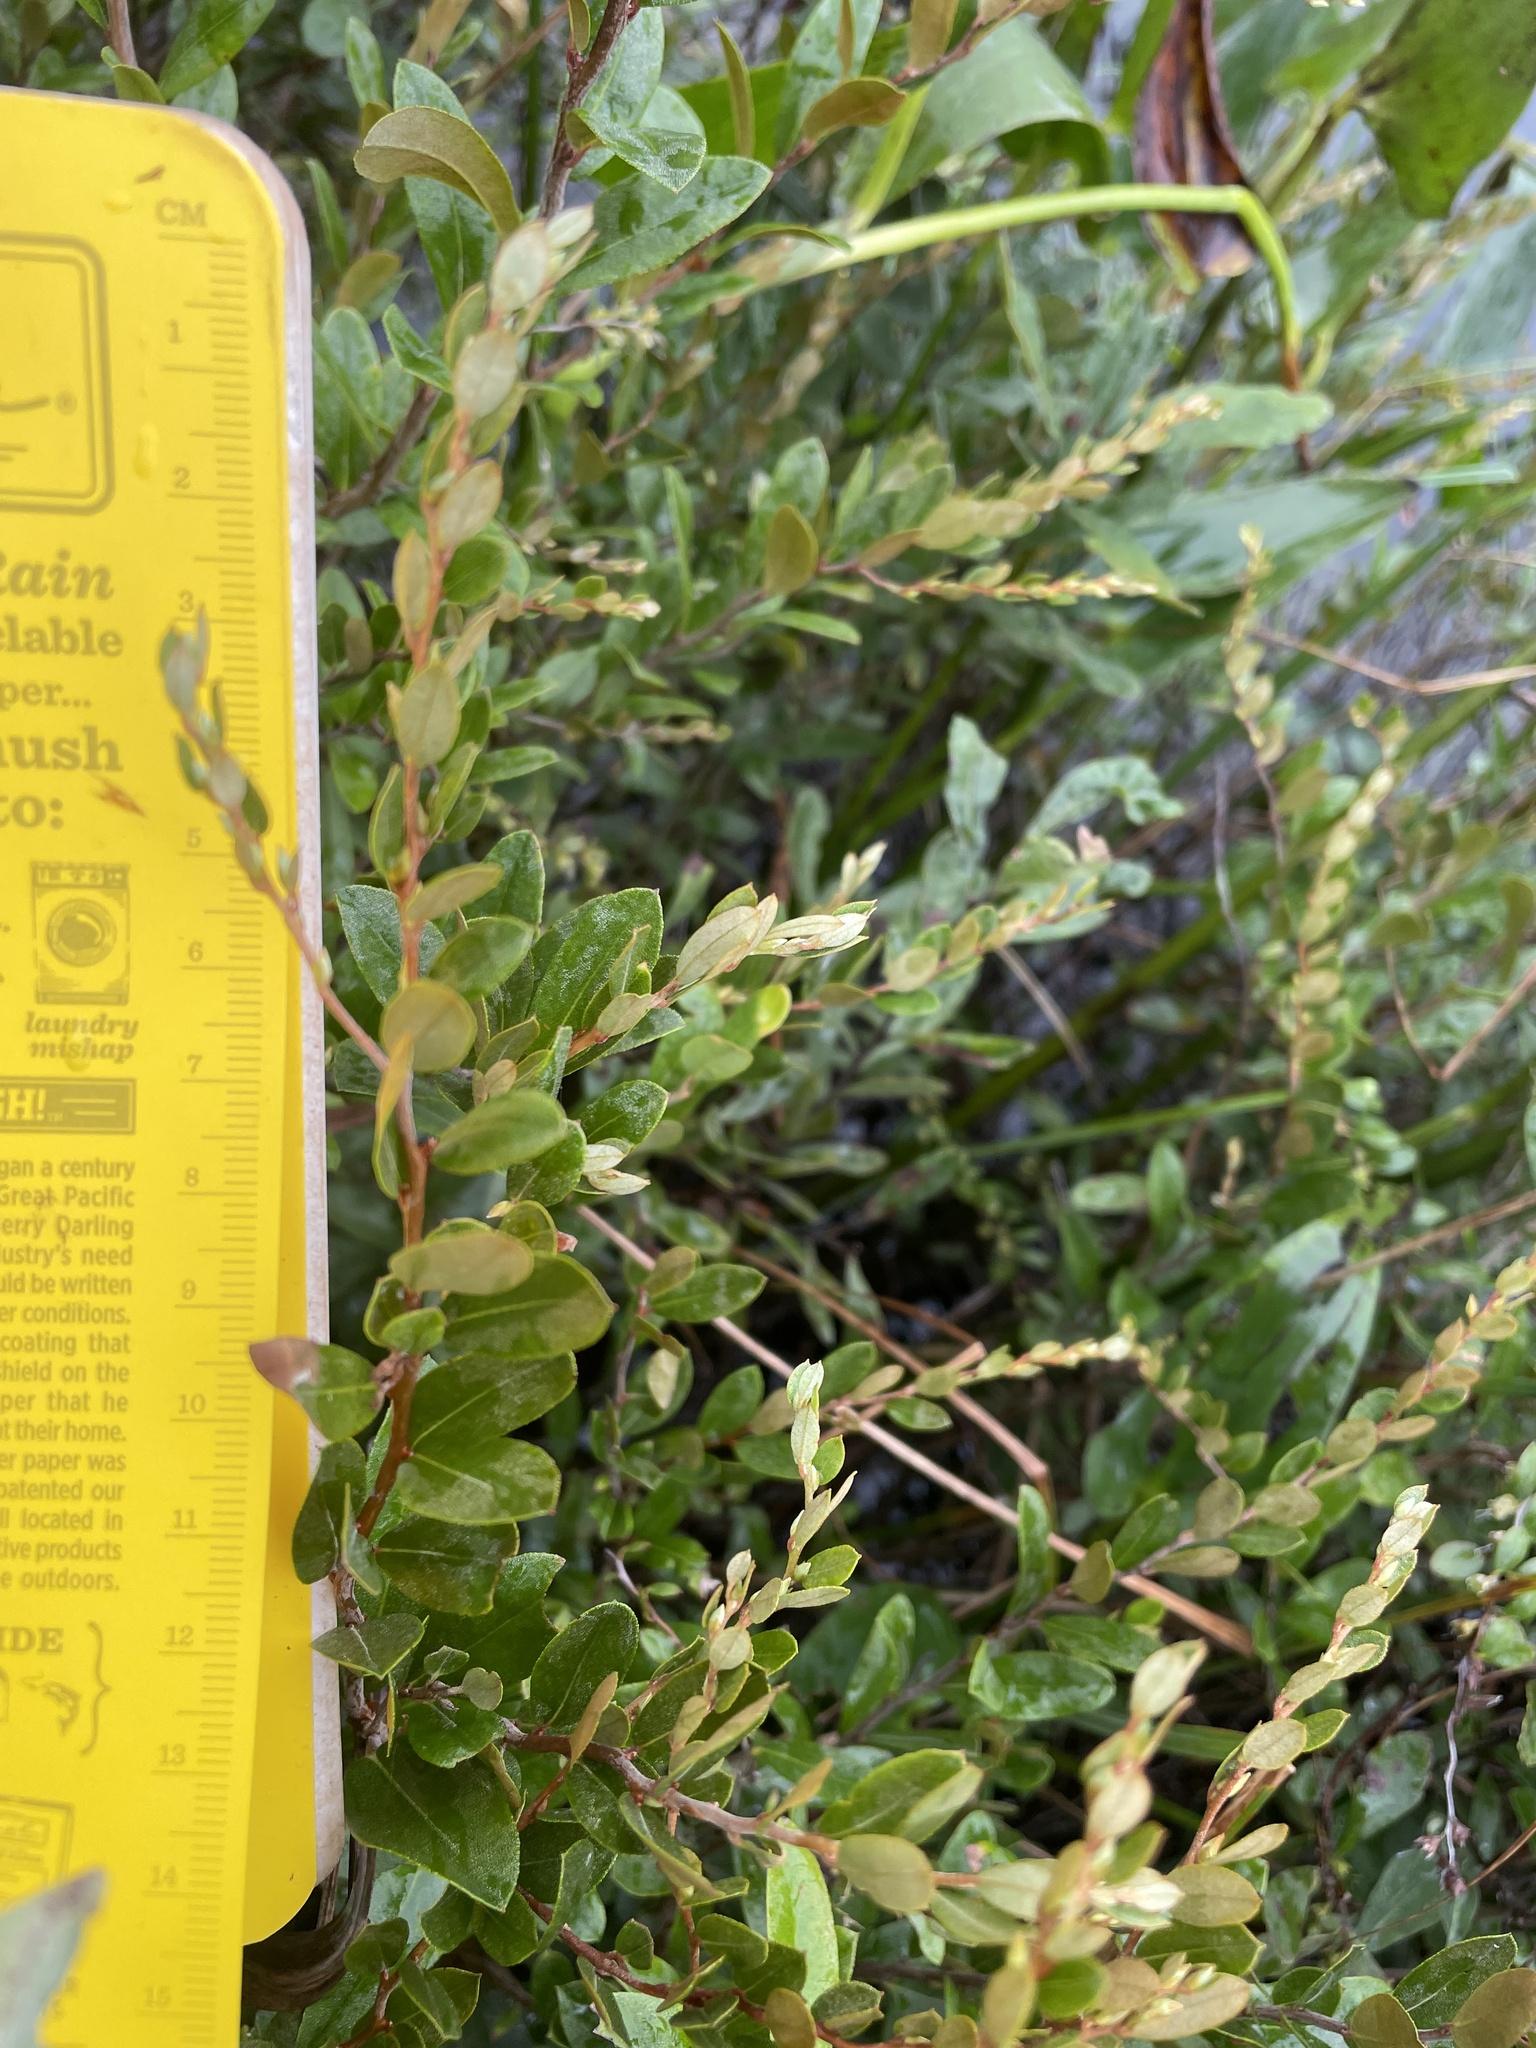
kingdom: Plantae
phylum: Tracheophyta
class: Magnoliopsida
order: Ericales
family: Ericaceae
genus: Chamaedaphne
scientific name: Chamaedaphne calyculata
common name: Leatherleaf
